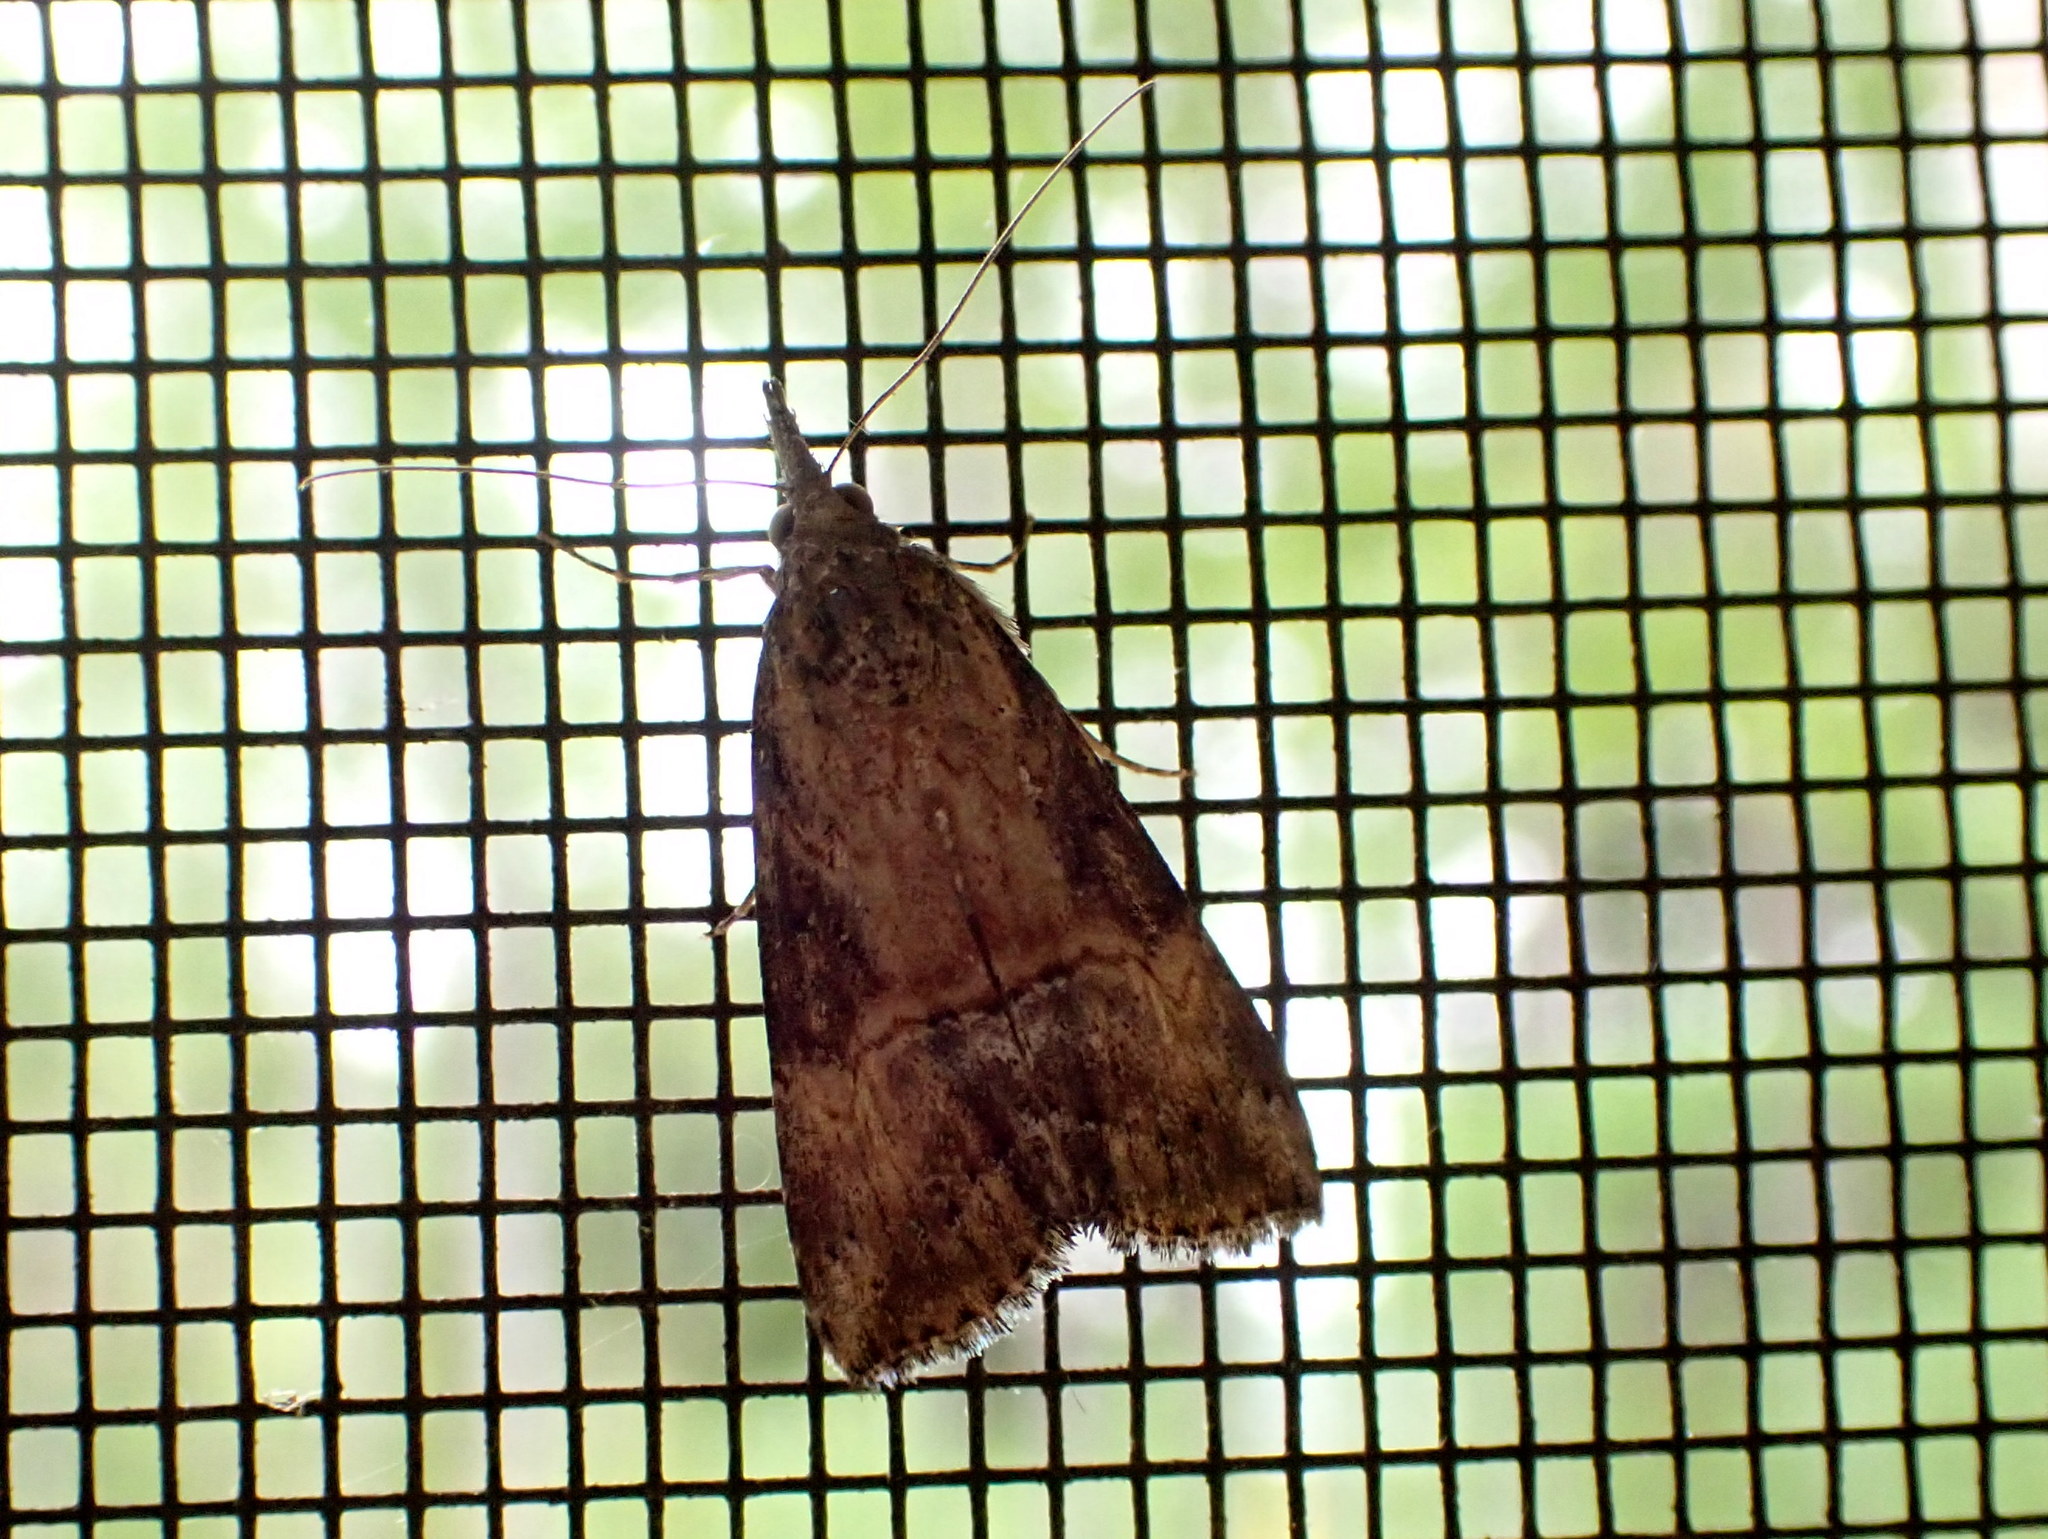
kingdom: Animalia
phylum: Arthropoda
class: Insecta
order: Lepidoptera
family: Erebidae
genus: Hypena
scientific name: Hypena scabra
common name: Green cloverworm
